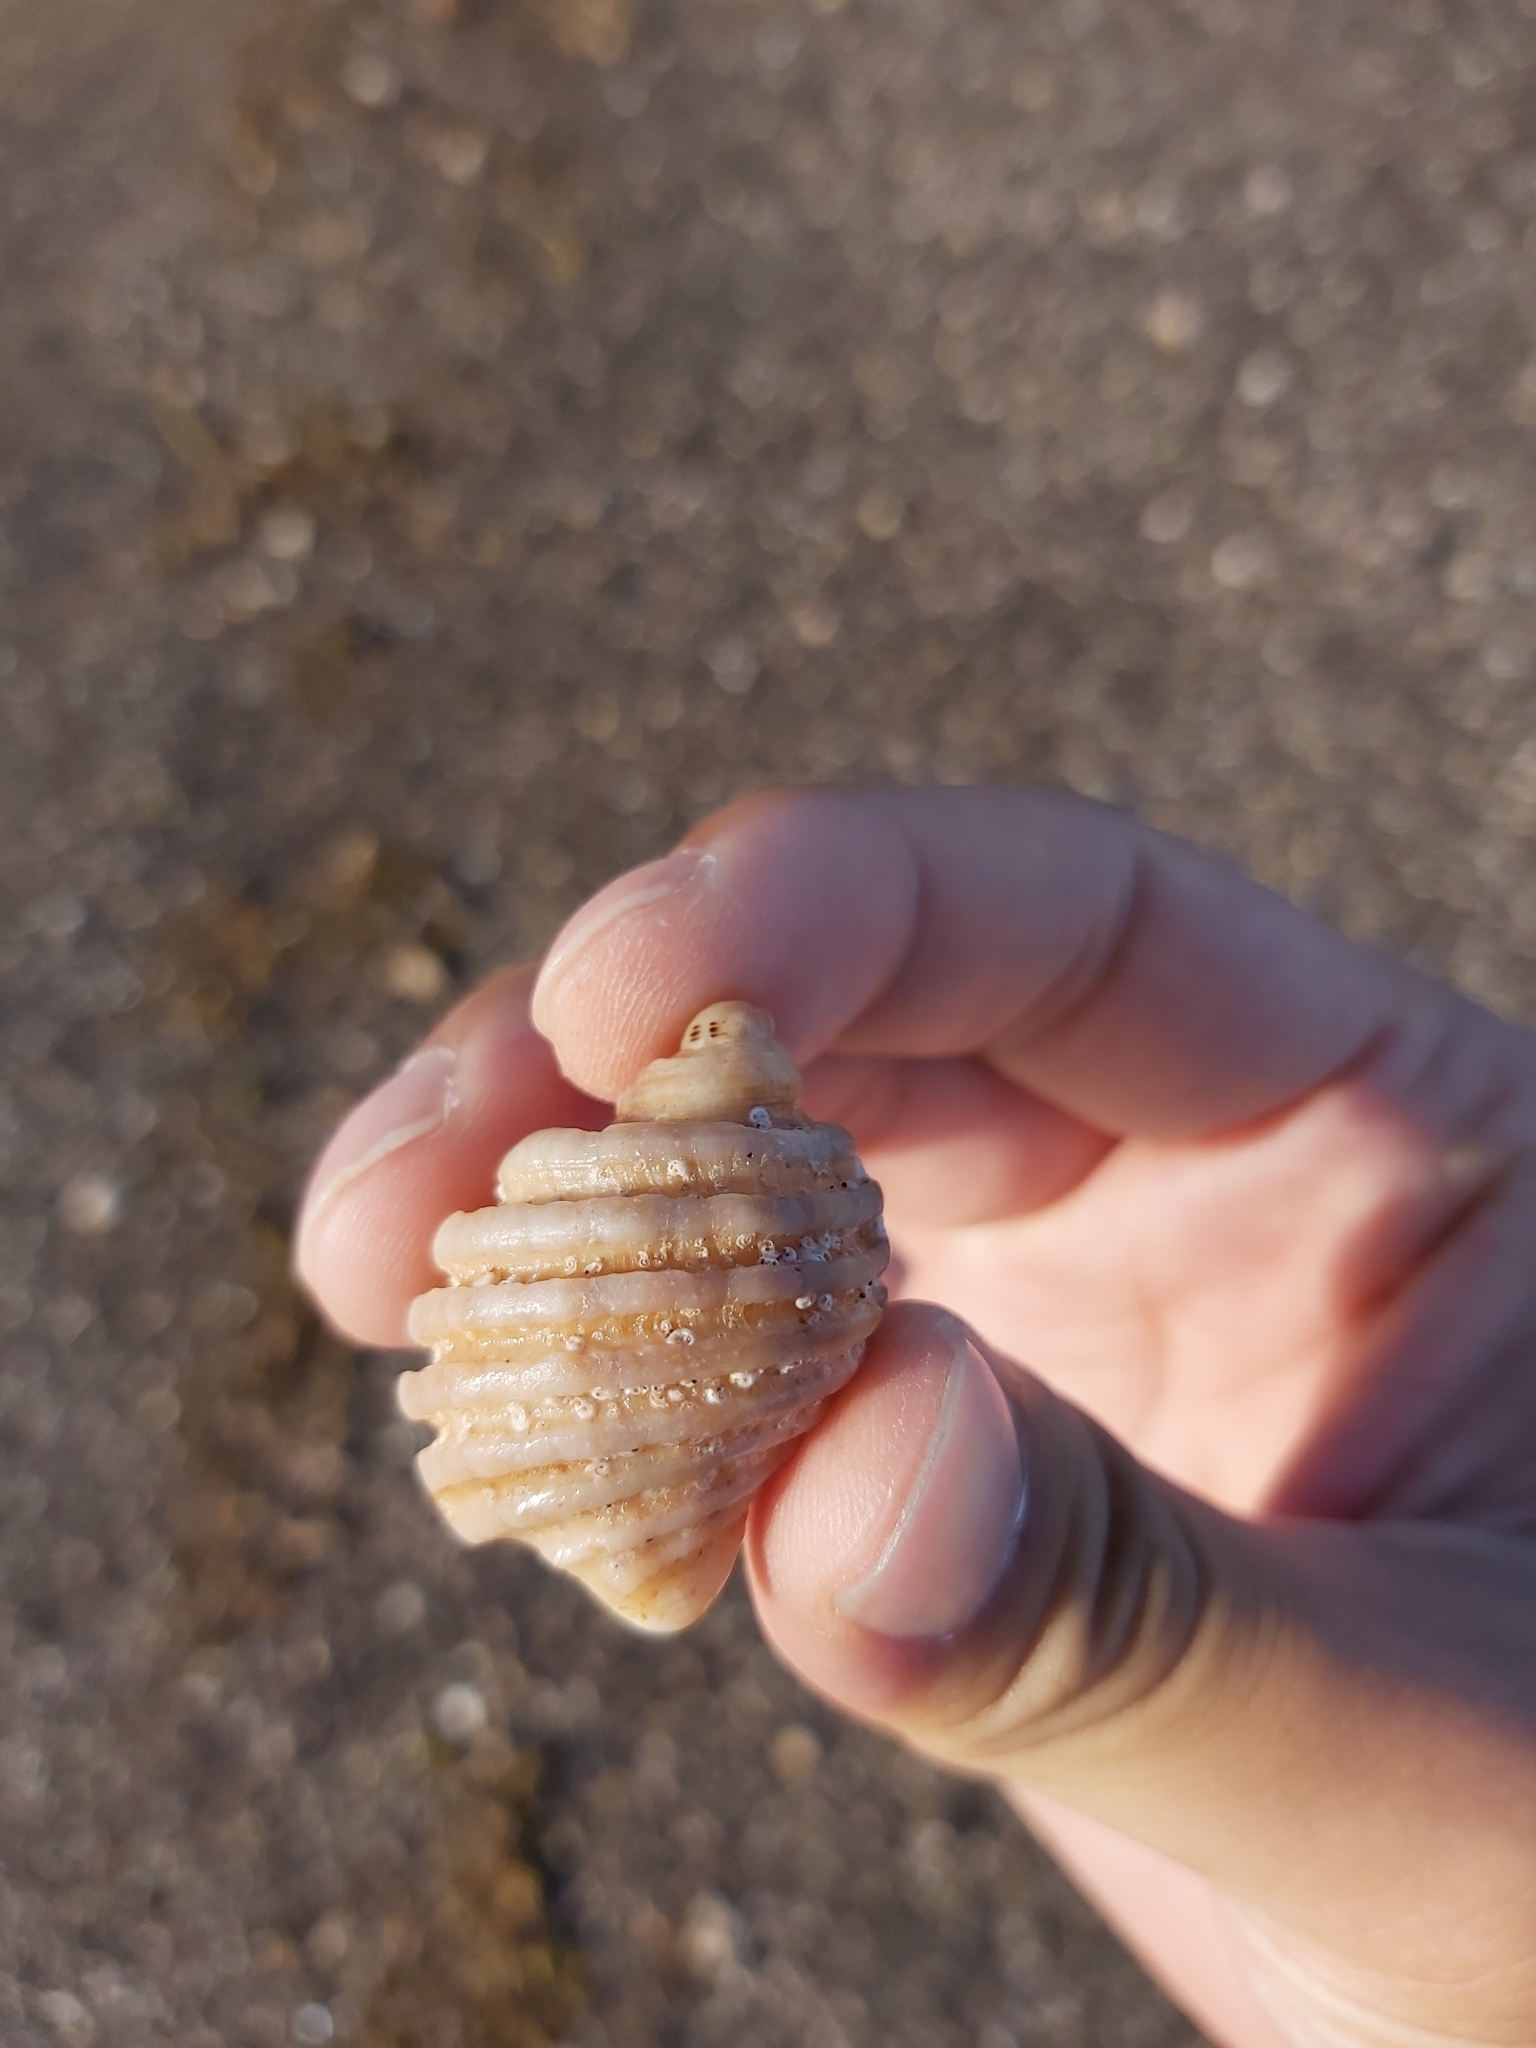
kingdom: Animalia
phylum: Mollusca
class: Gastropoda
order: Neogastropoda
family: Muricidae
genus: Dicathais
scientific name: Dicathais orbita
